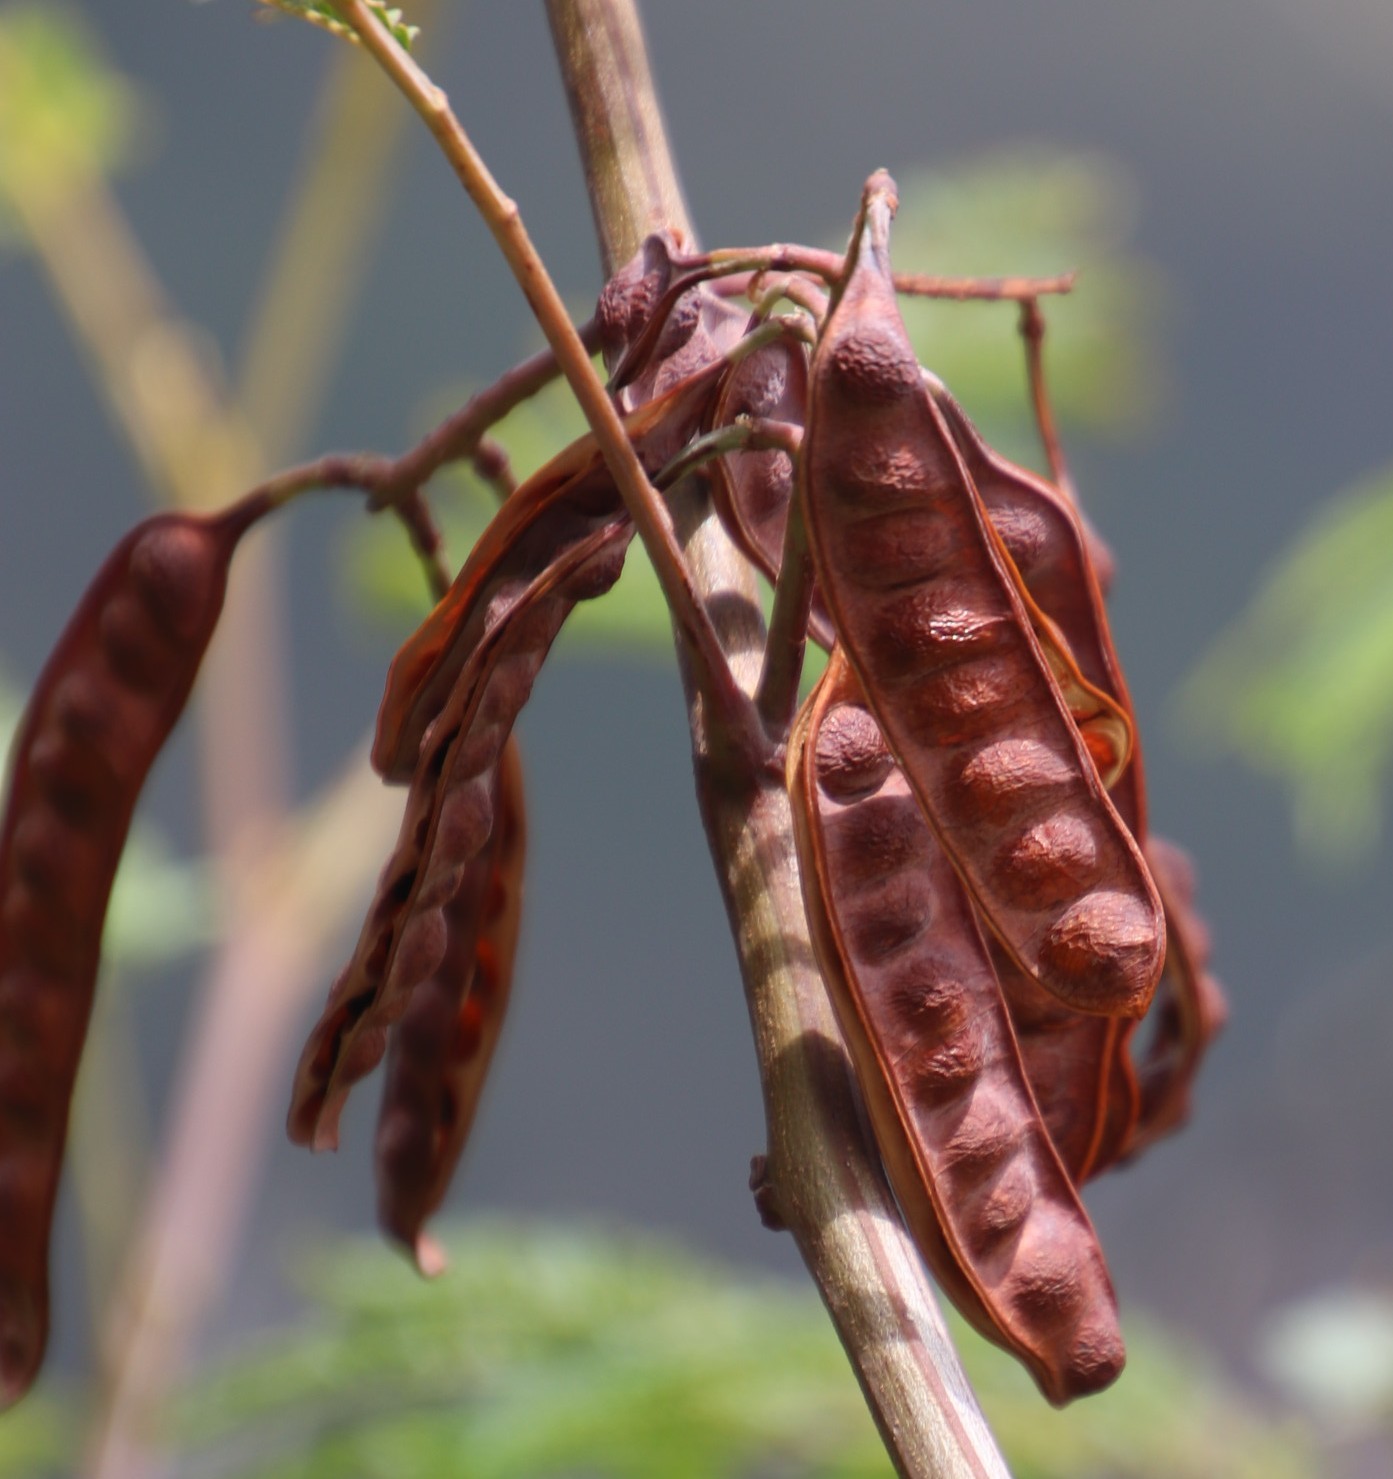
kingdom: Plantae
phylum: Tracheophyta
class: Magnoliopsida
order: Fabales
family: Fabaceae
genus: Paraserianthes
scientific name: Paraserianthes lophantha
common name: Plume albizia
